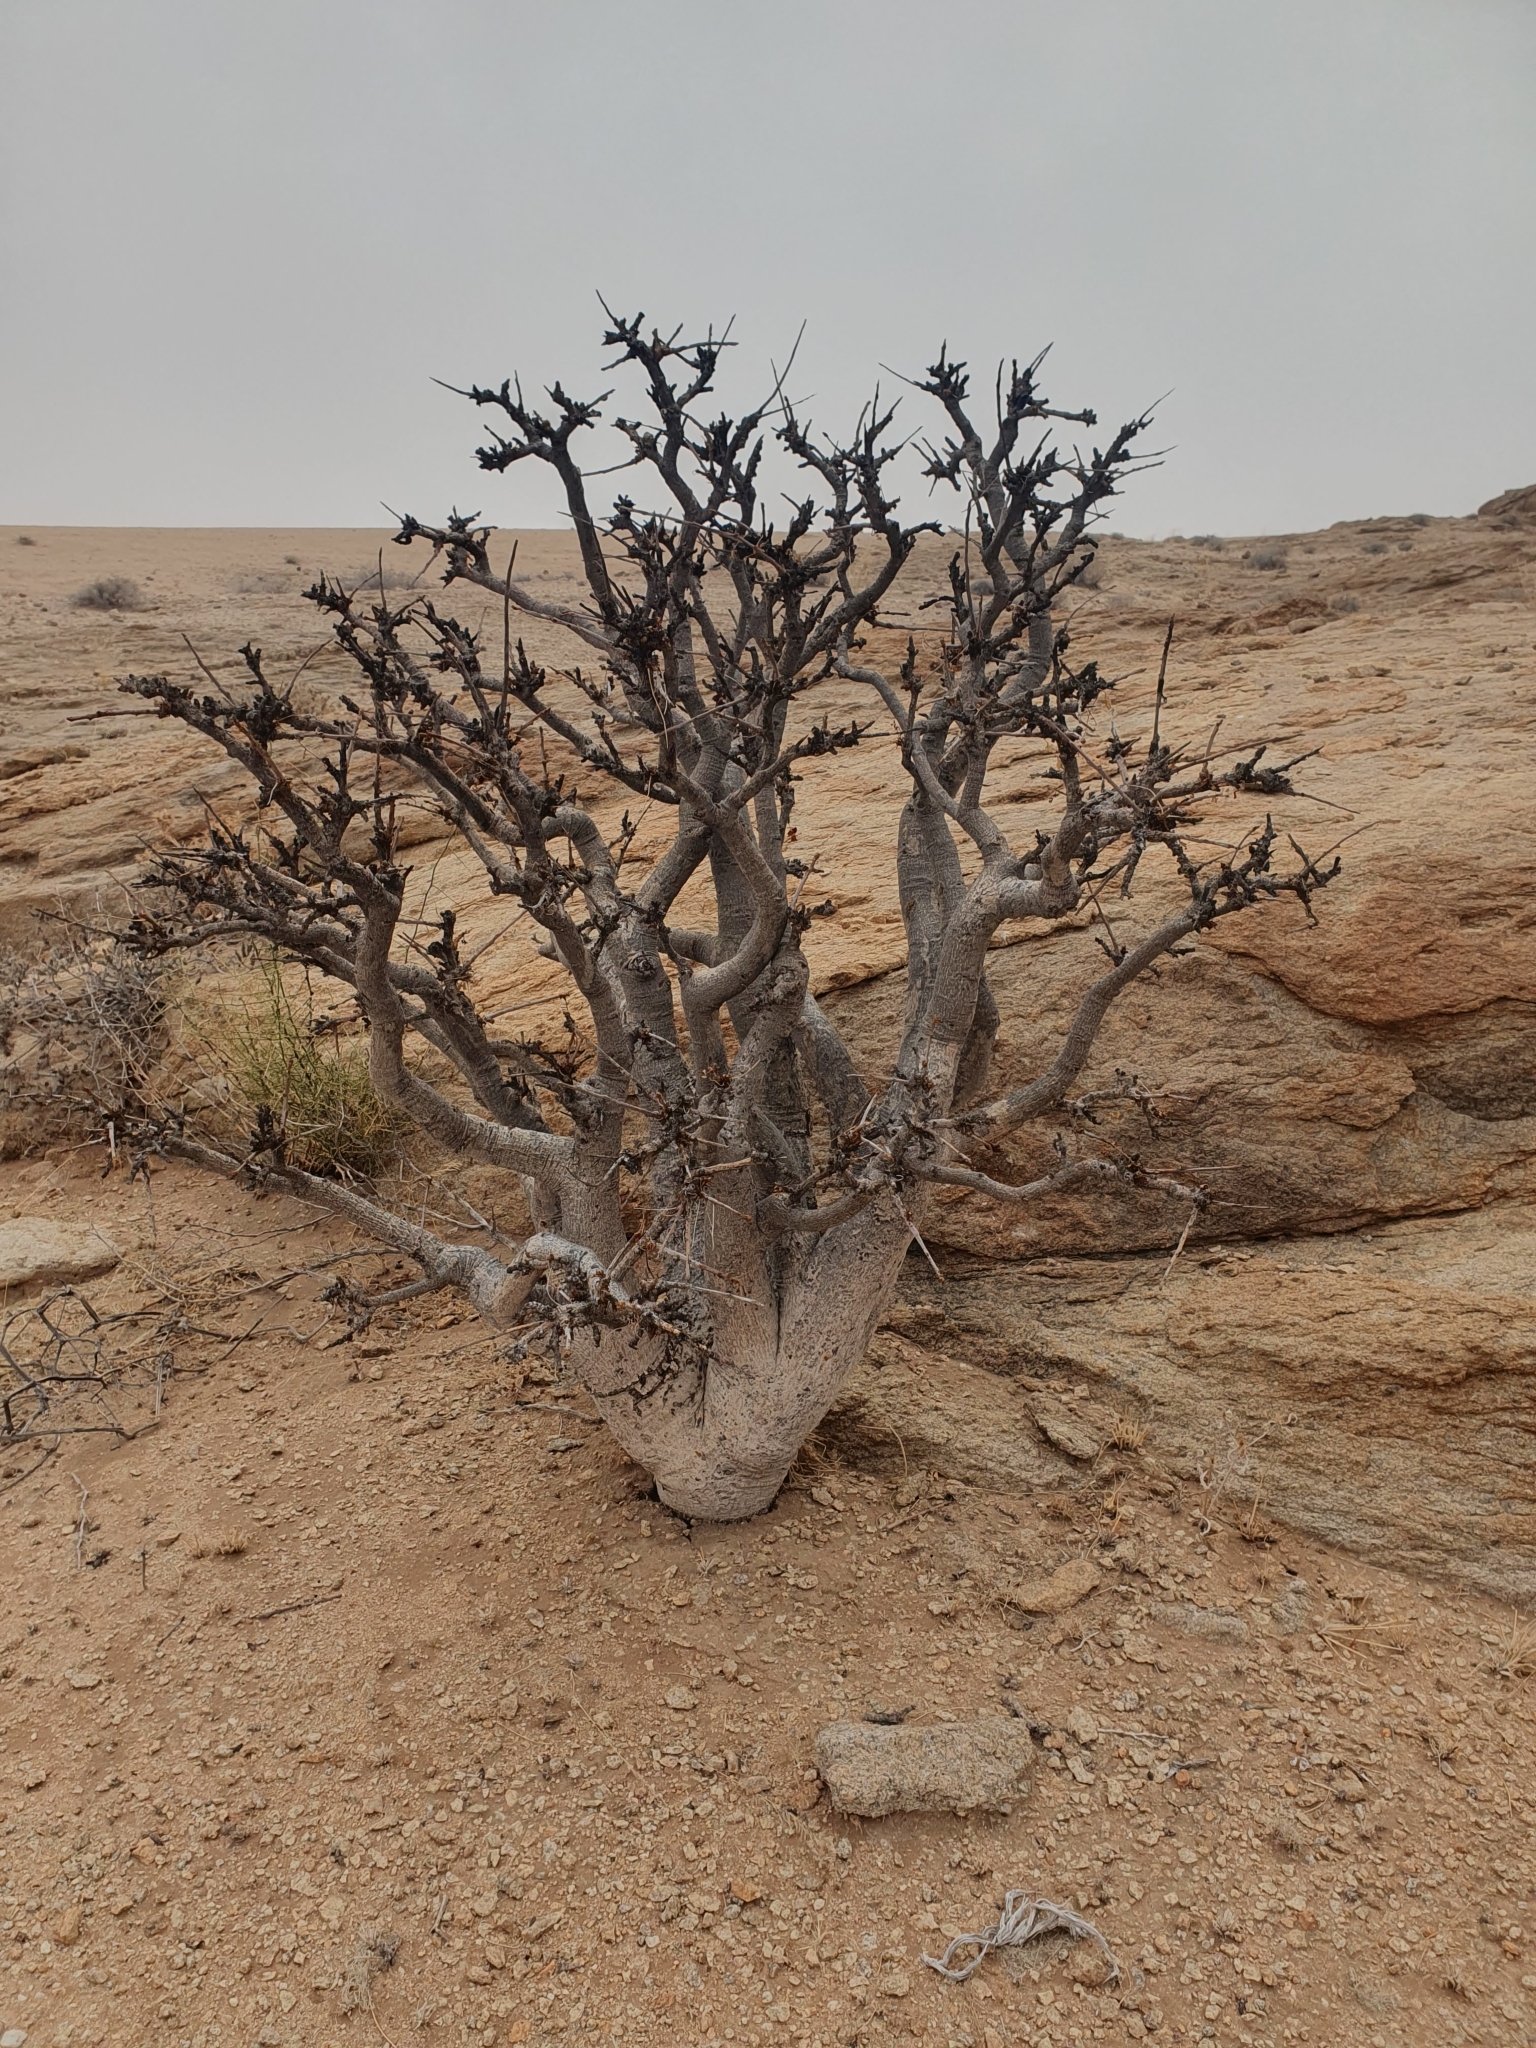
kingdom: Plantae
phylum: Tracheophyta
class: Magnoliopsida
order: Sapindales
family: Burseraceae
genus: Commiphora
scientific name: Commiphora saxicola
